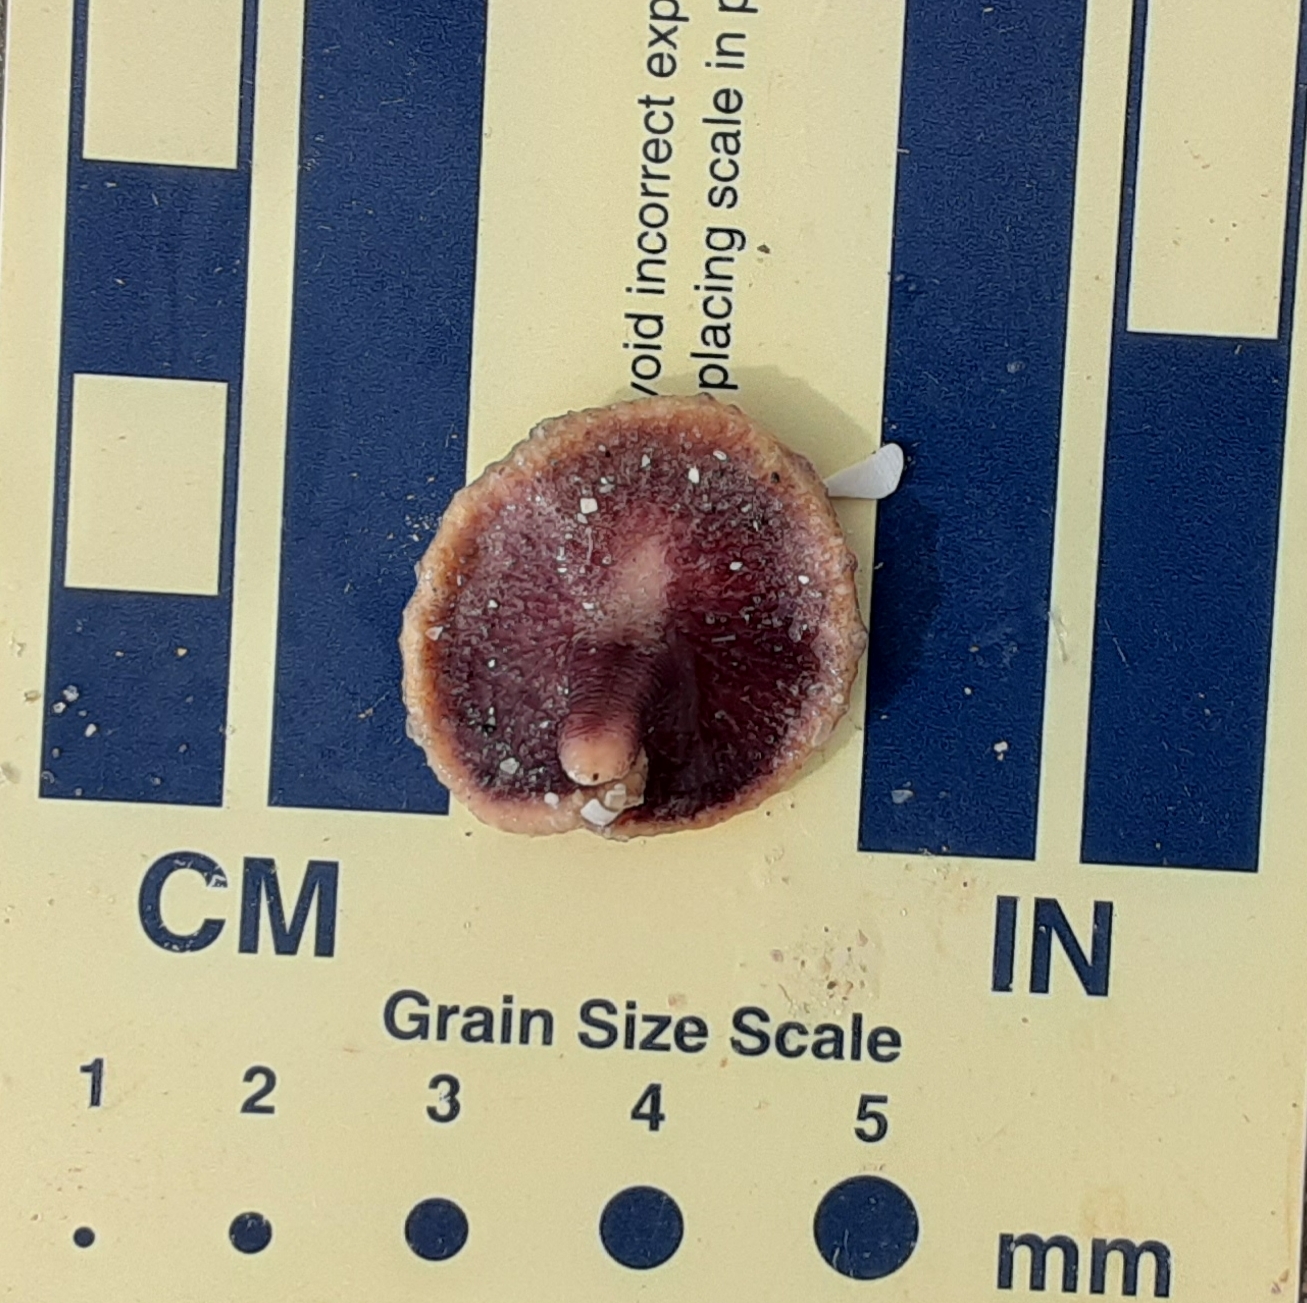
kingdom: Animalia
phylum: Cnidaria
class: Anthozoa
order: Scleralcyonacea
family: Renillidae
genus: Renilla
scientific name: Renilla reniformis
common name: Sea pansy
